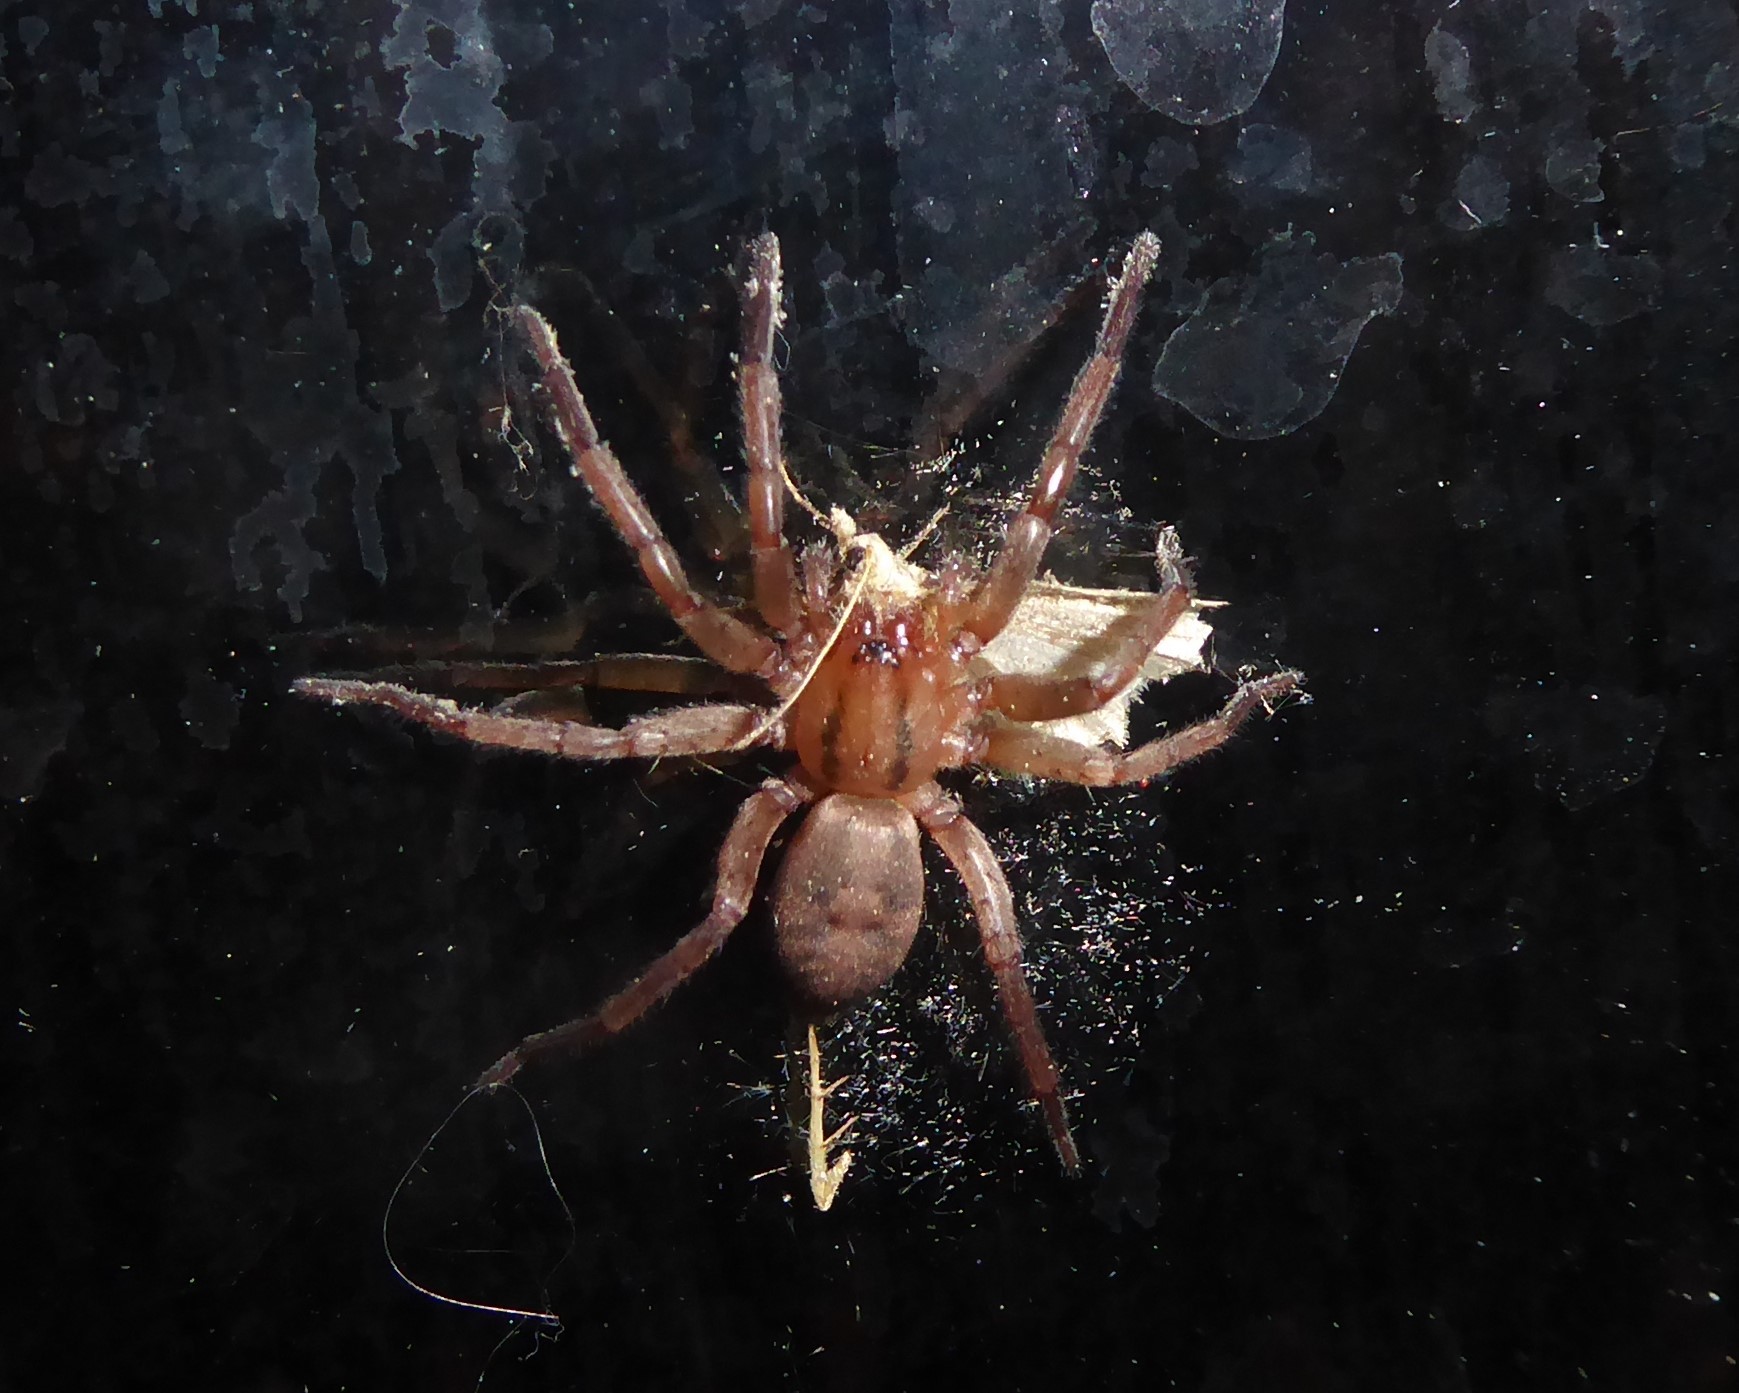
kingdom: Animalia
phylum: Arthropoda
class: Arachnida
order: Araneae
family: Gnaphosidae
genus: Notiodrassus
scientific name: Notiodrassus distinctus
